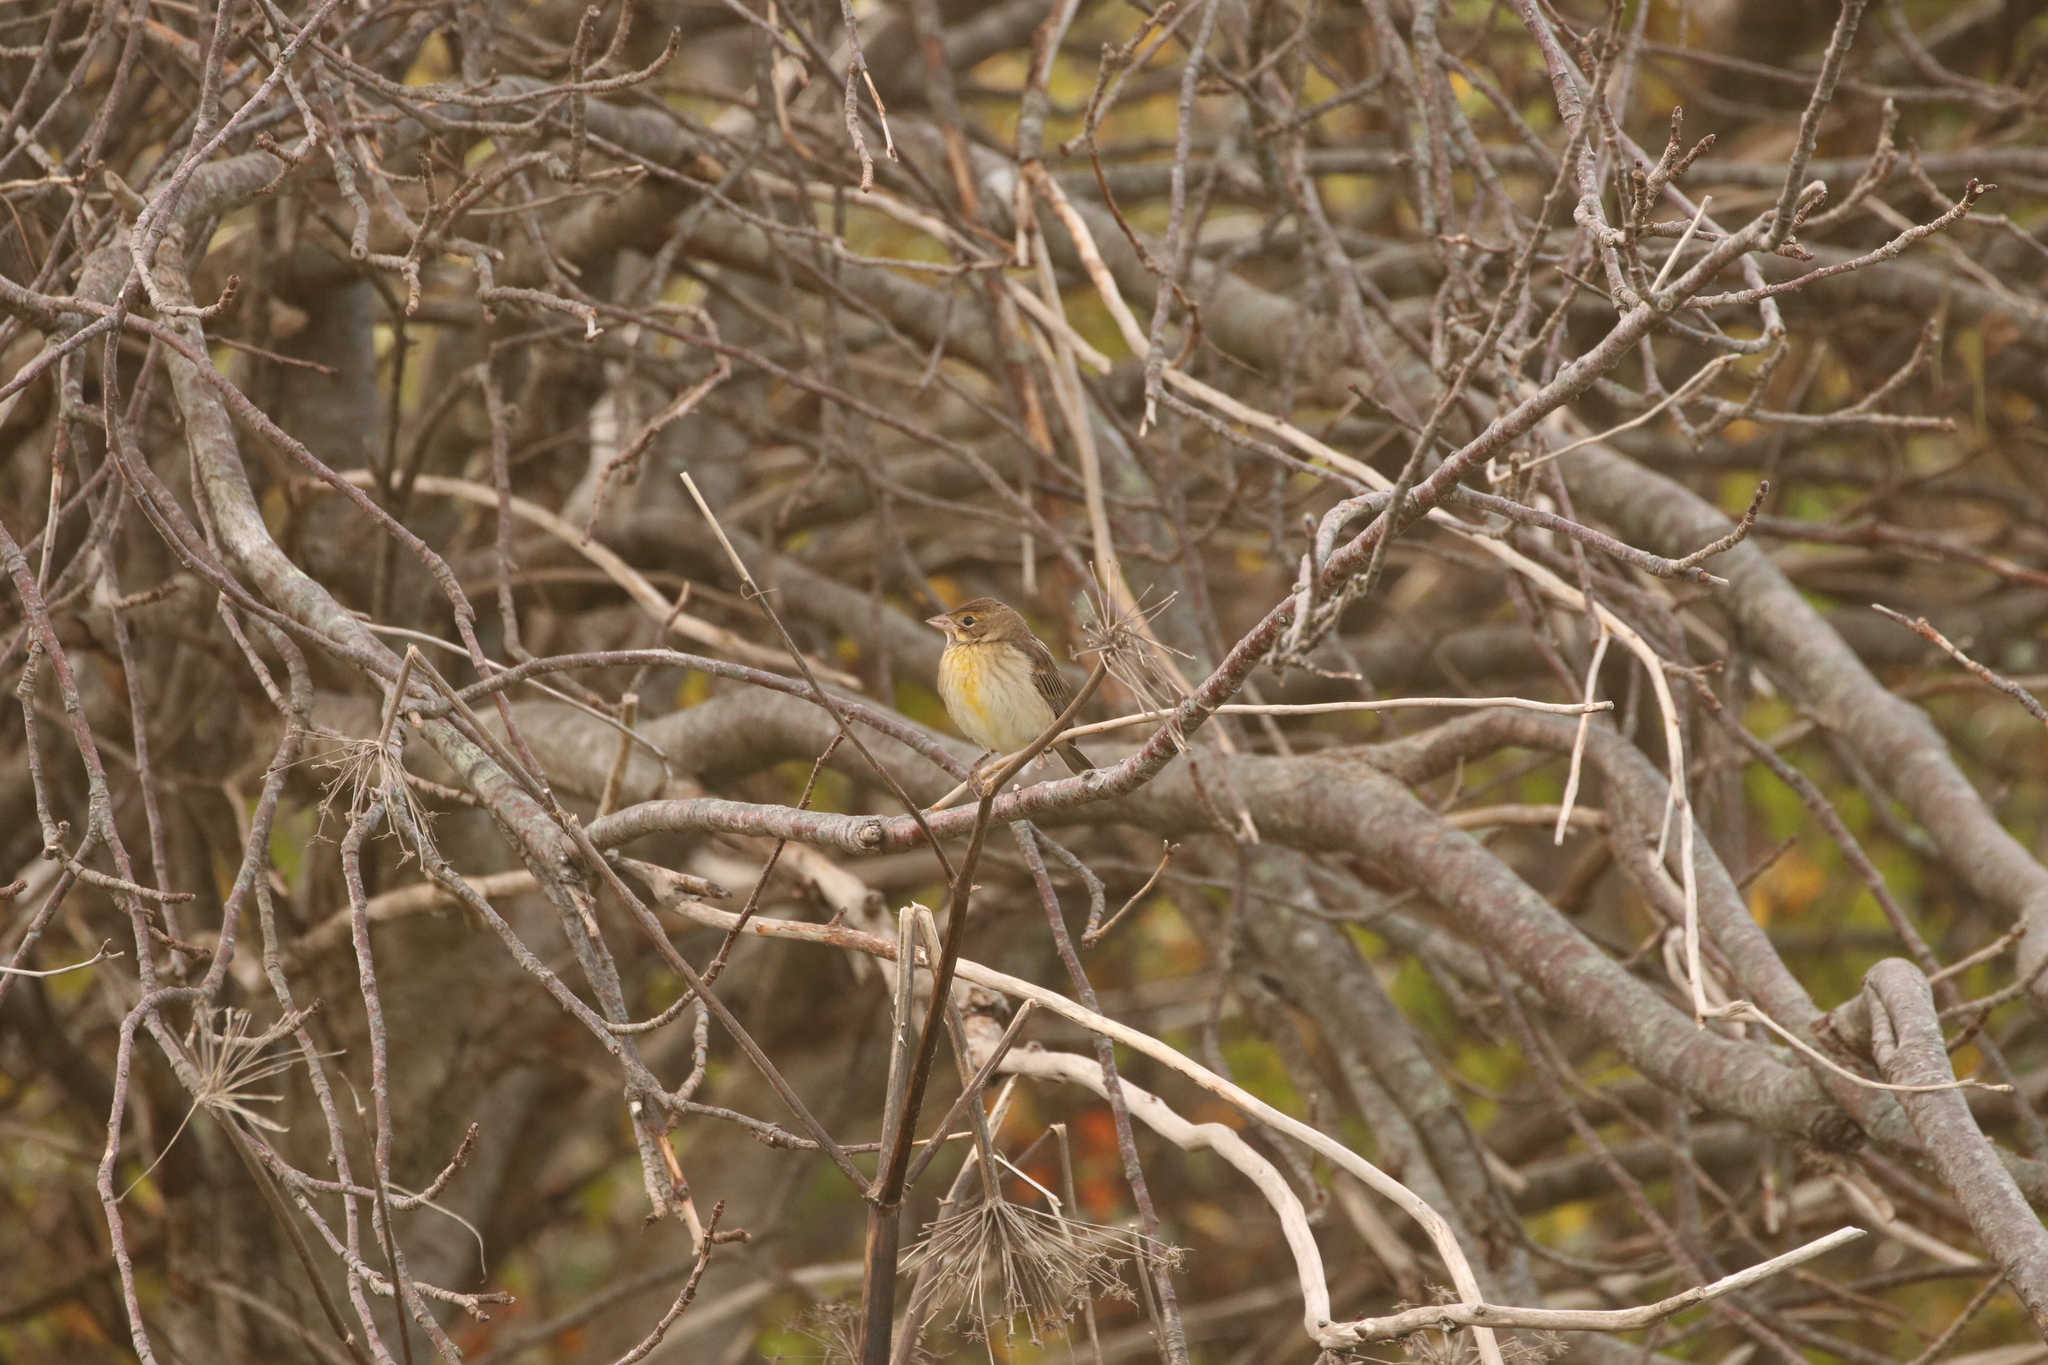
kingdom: Animalia
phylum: Chordata
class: Aves
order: Passeriformes
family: Cardinalidae
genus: Spiza
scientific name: Spiza americana
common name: Dickcissel
